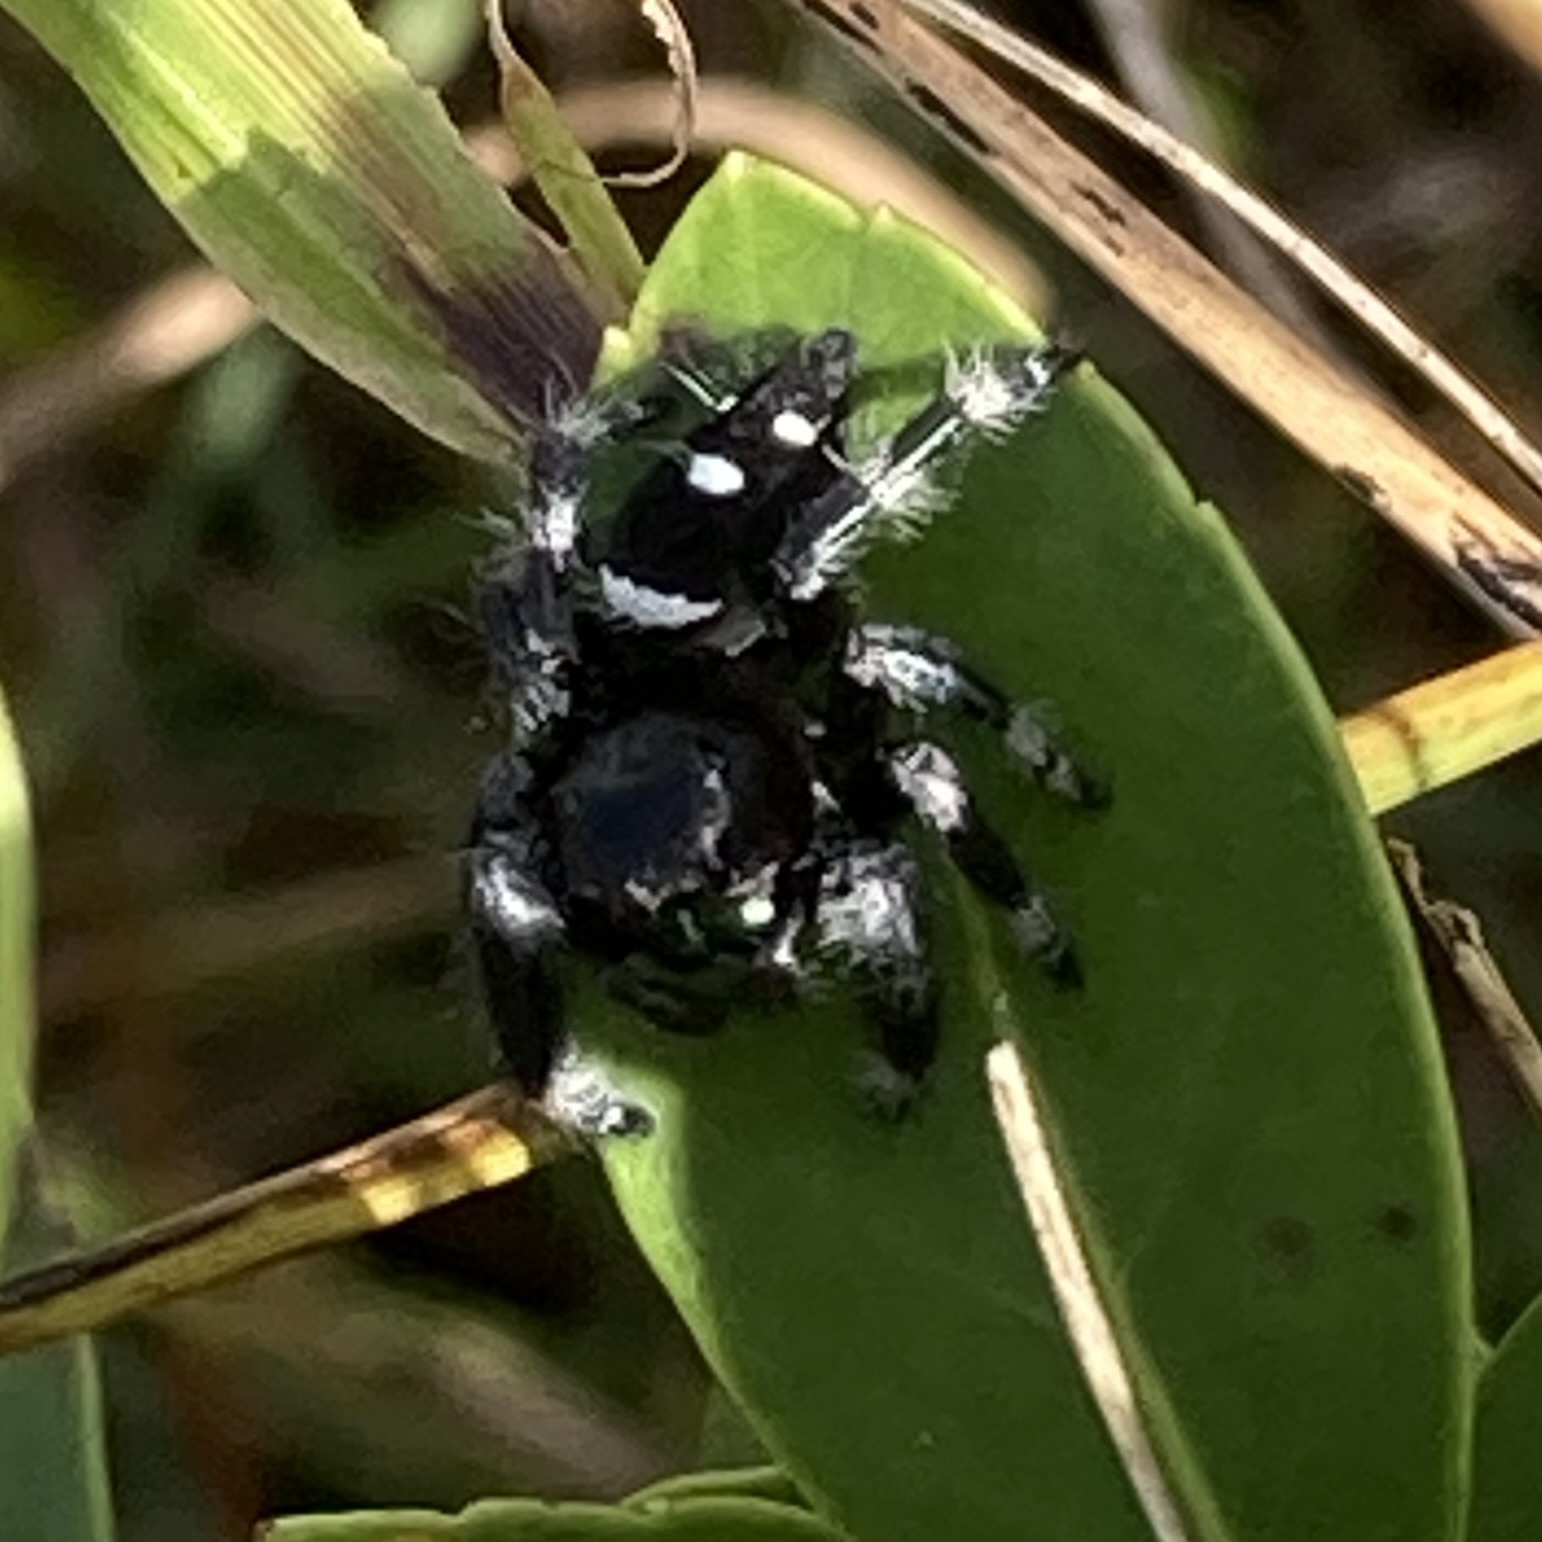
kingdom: Animalia
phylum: Arthropoda
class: Arachnida
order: Araneae
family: Salticidae
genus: Phidippus
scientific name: Phidippus regius
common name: Regal jumper
